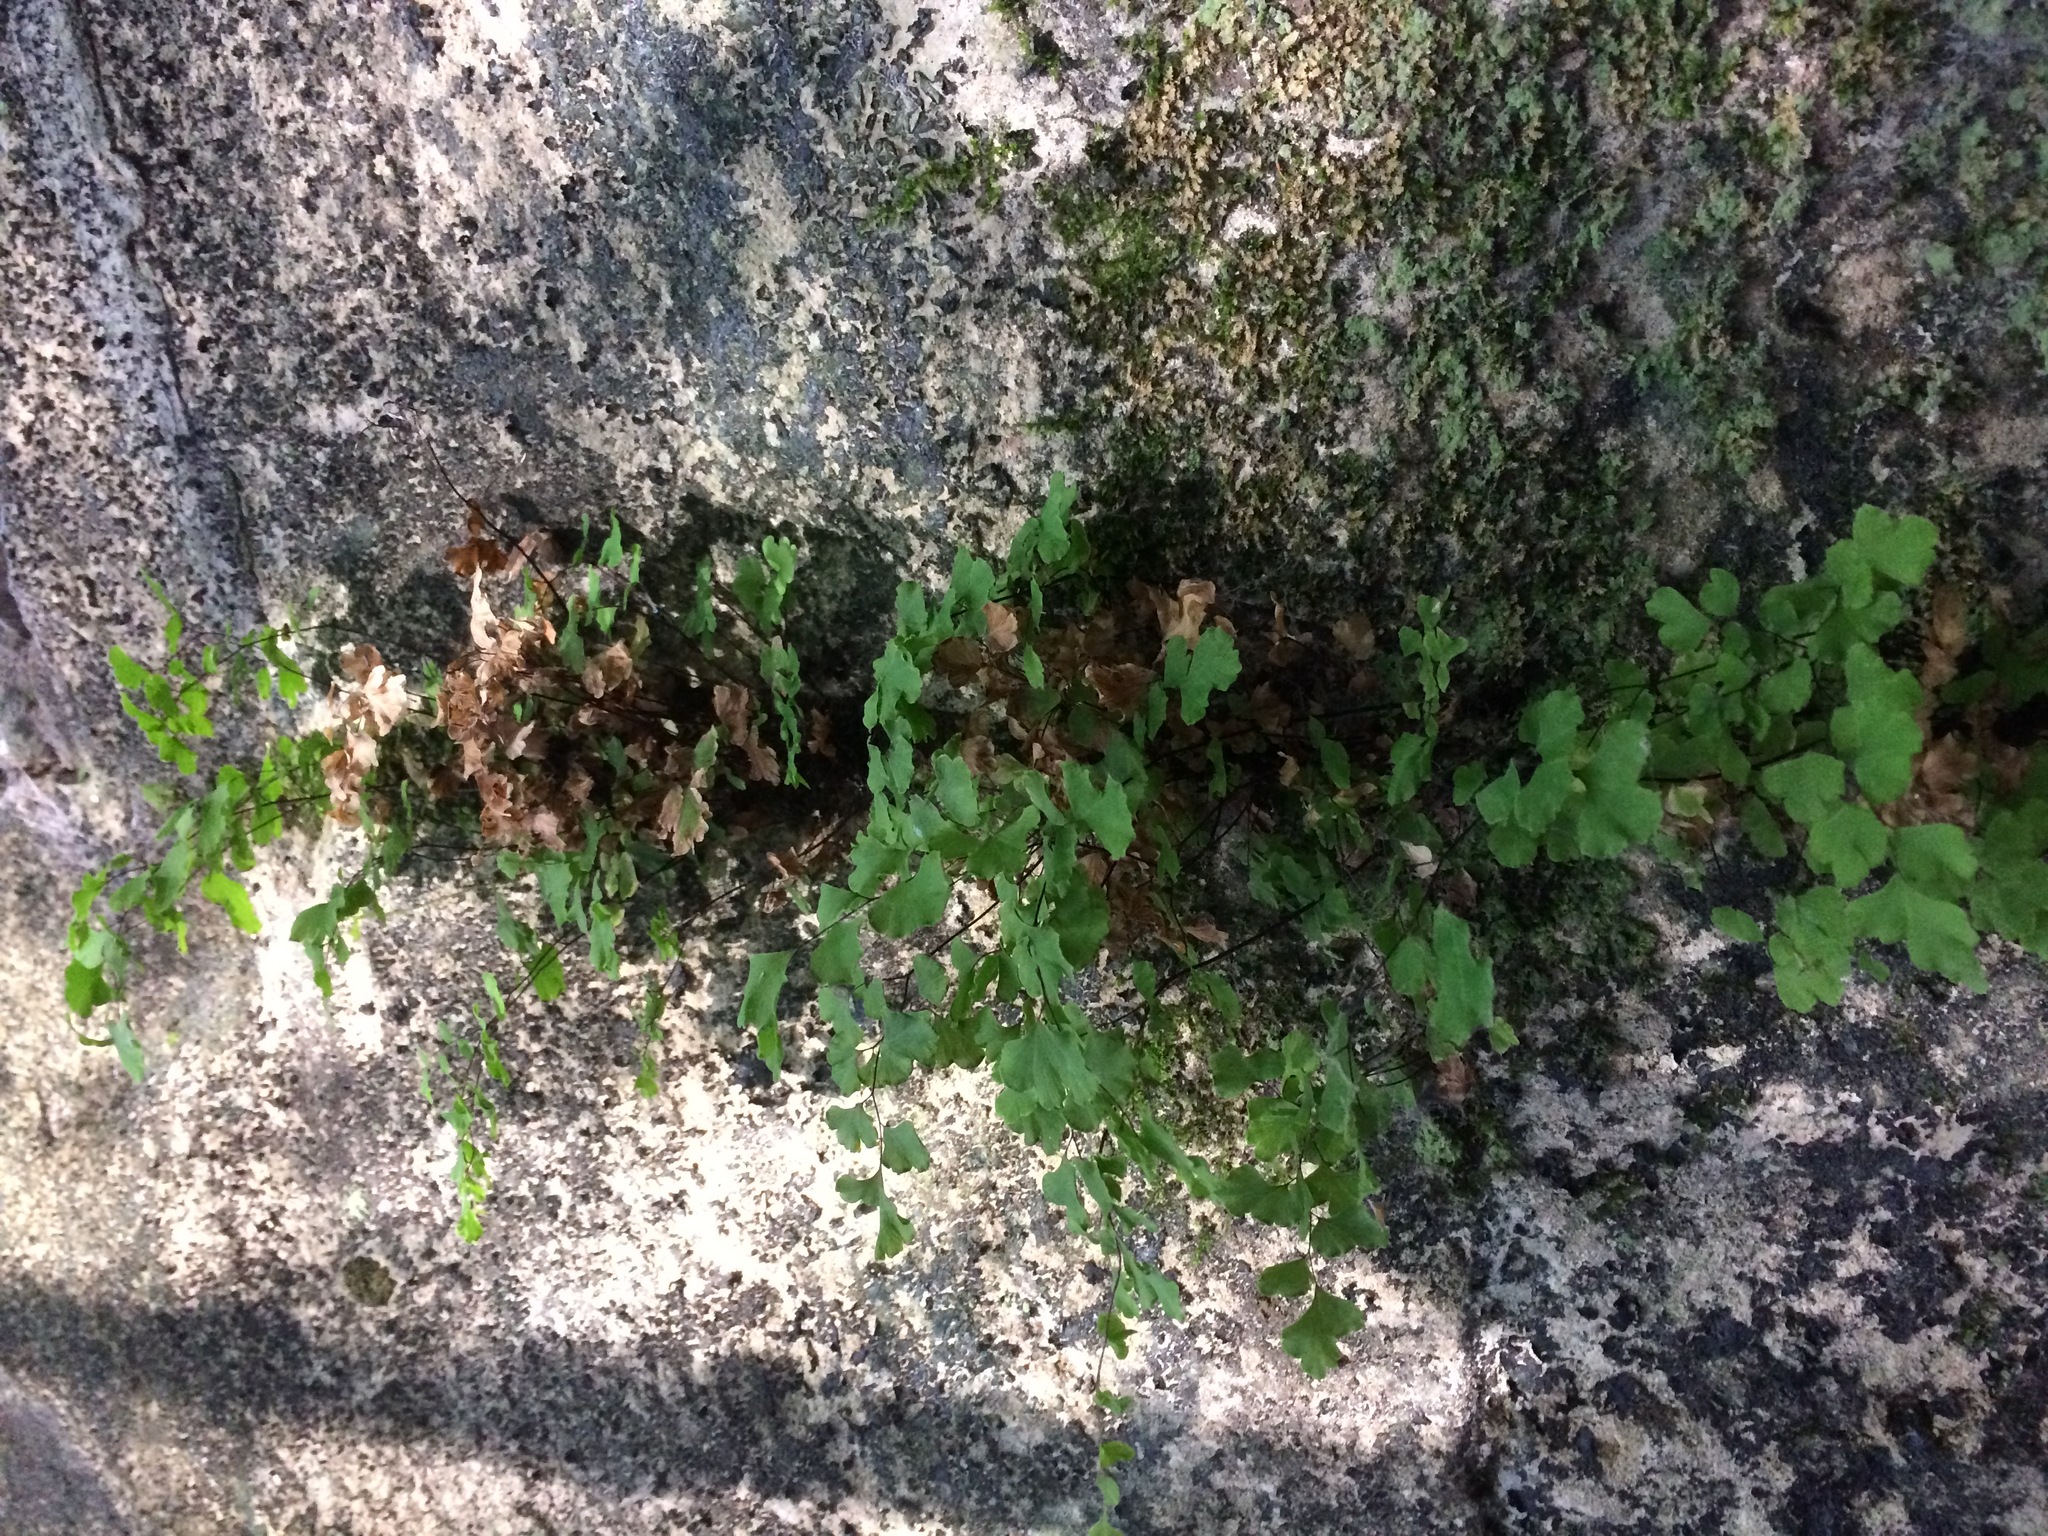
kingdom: Plantae
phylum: Tracheophyta
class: Polypodiopsida
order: Polypodiales
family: Pteridaceae
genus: Adiantum
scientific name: Adiantum capillus-veneris
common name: Maidenhair fern
